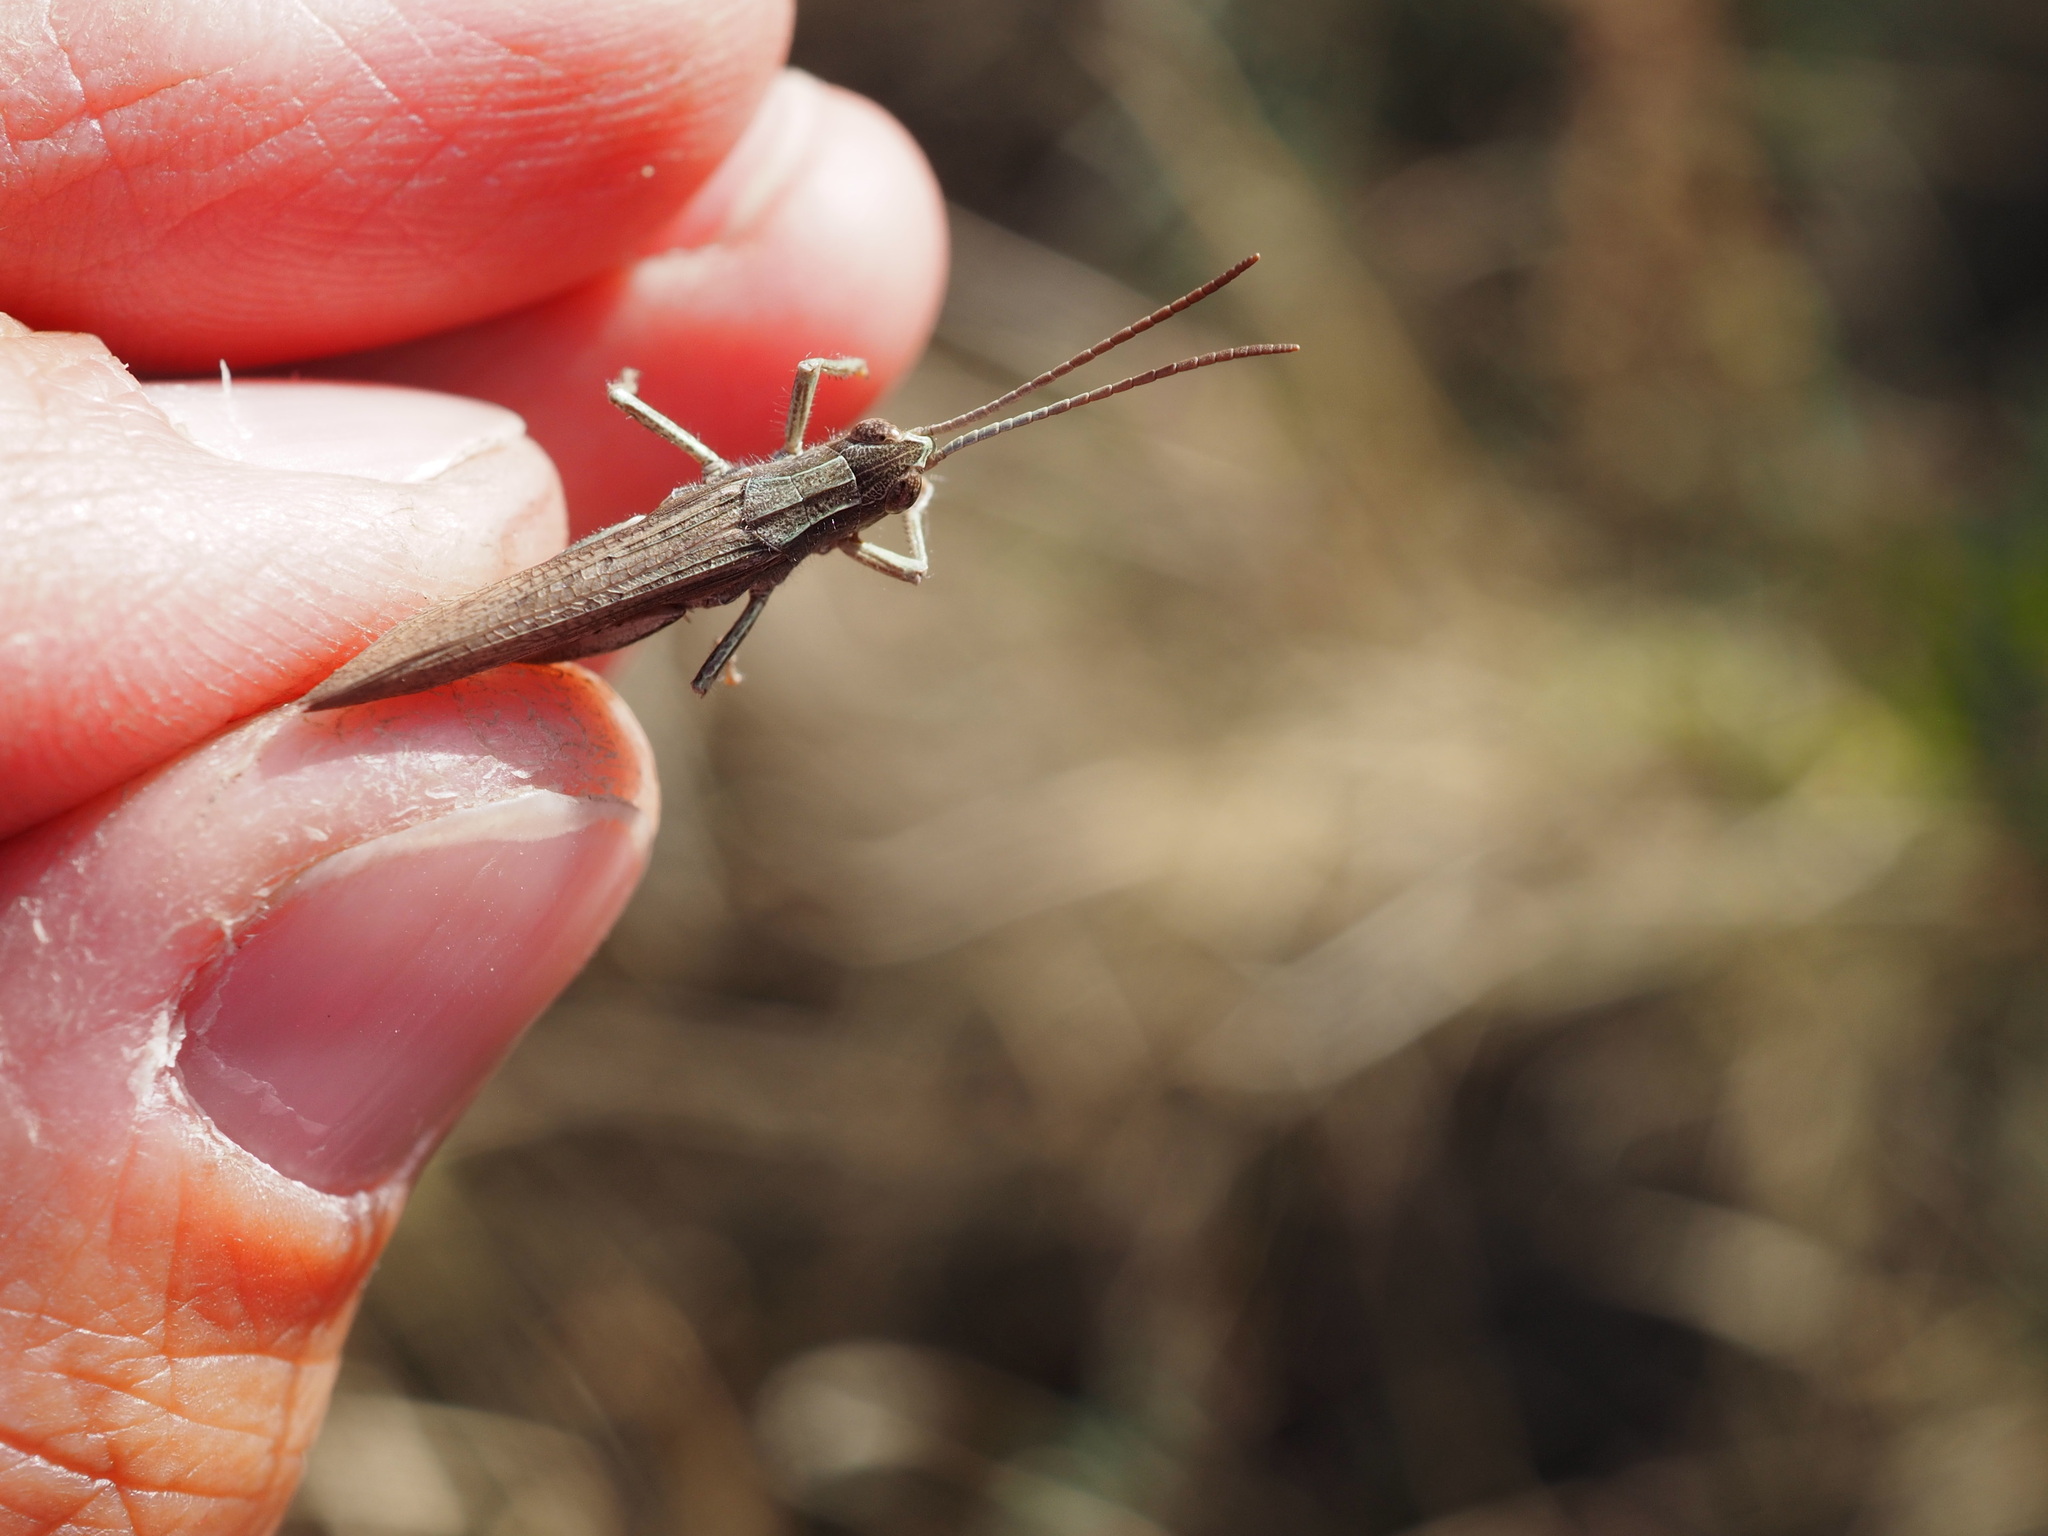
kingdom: Animalia
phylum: Arthropoda
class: Insecta
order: Orthoptera
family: Acrididae
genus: Chorthippus
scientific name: Chorthippus dorsatus
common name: Steppe grasshopper
